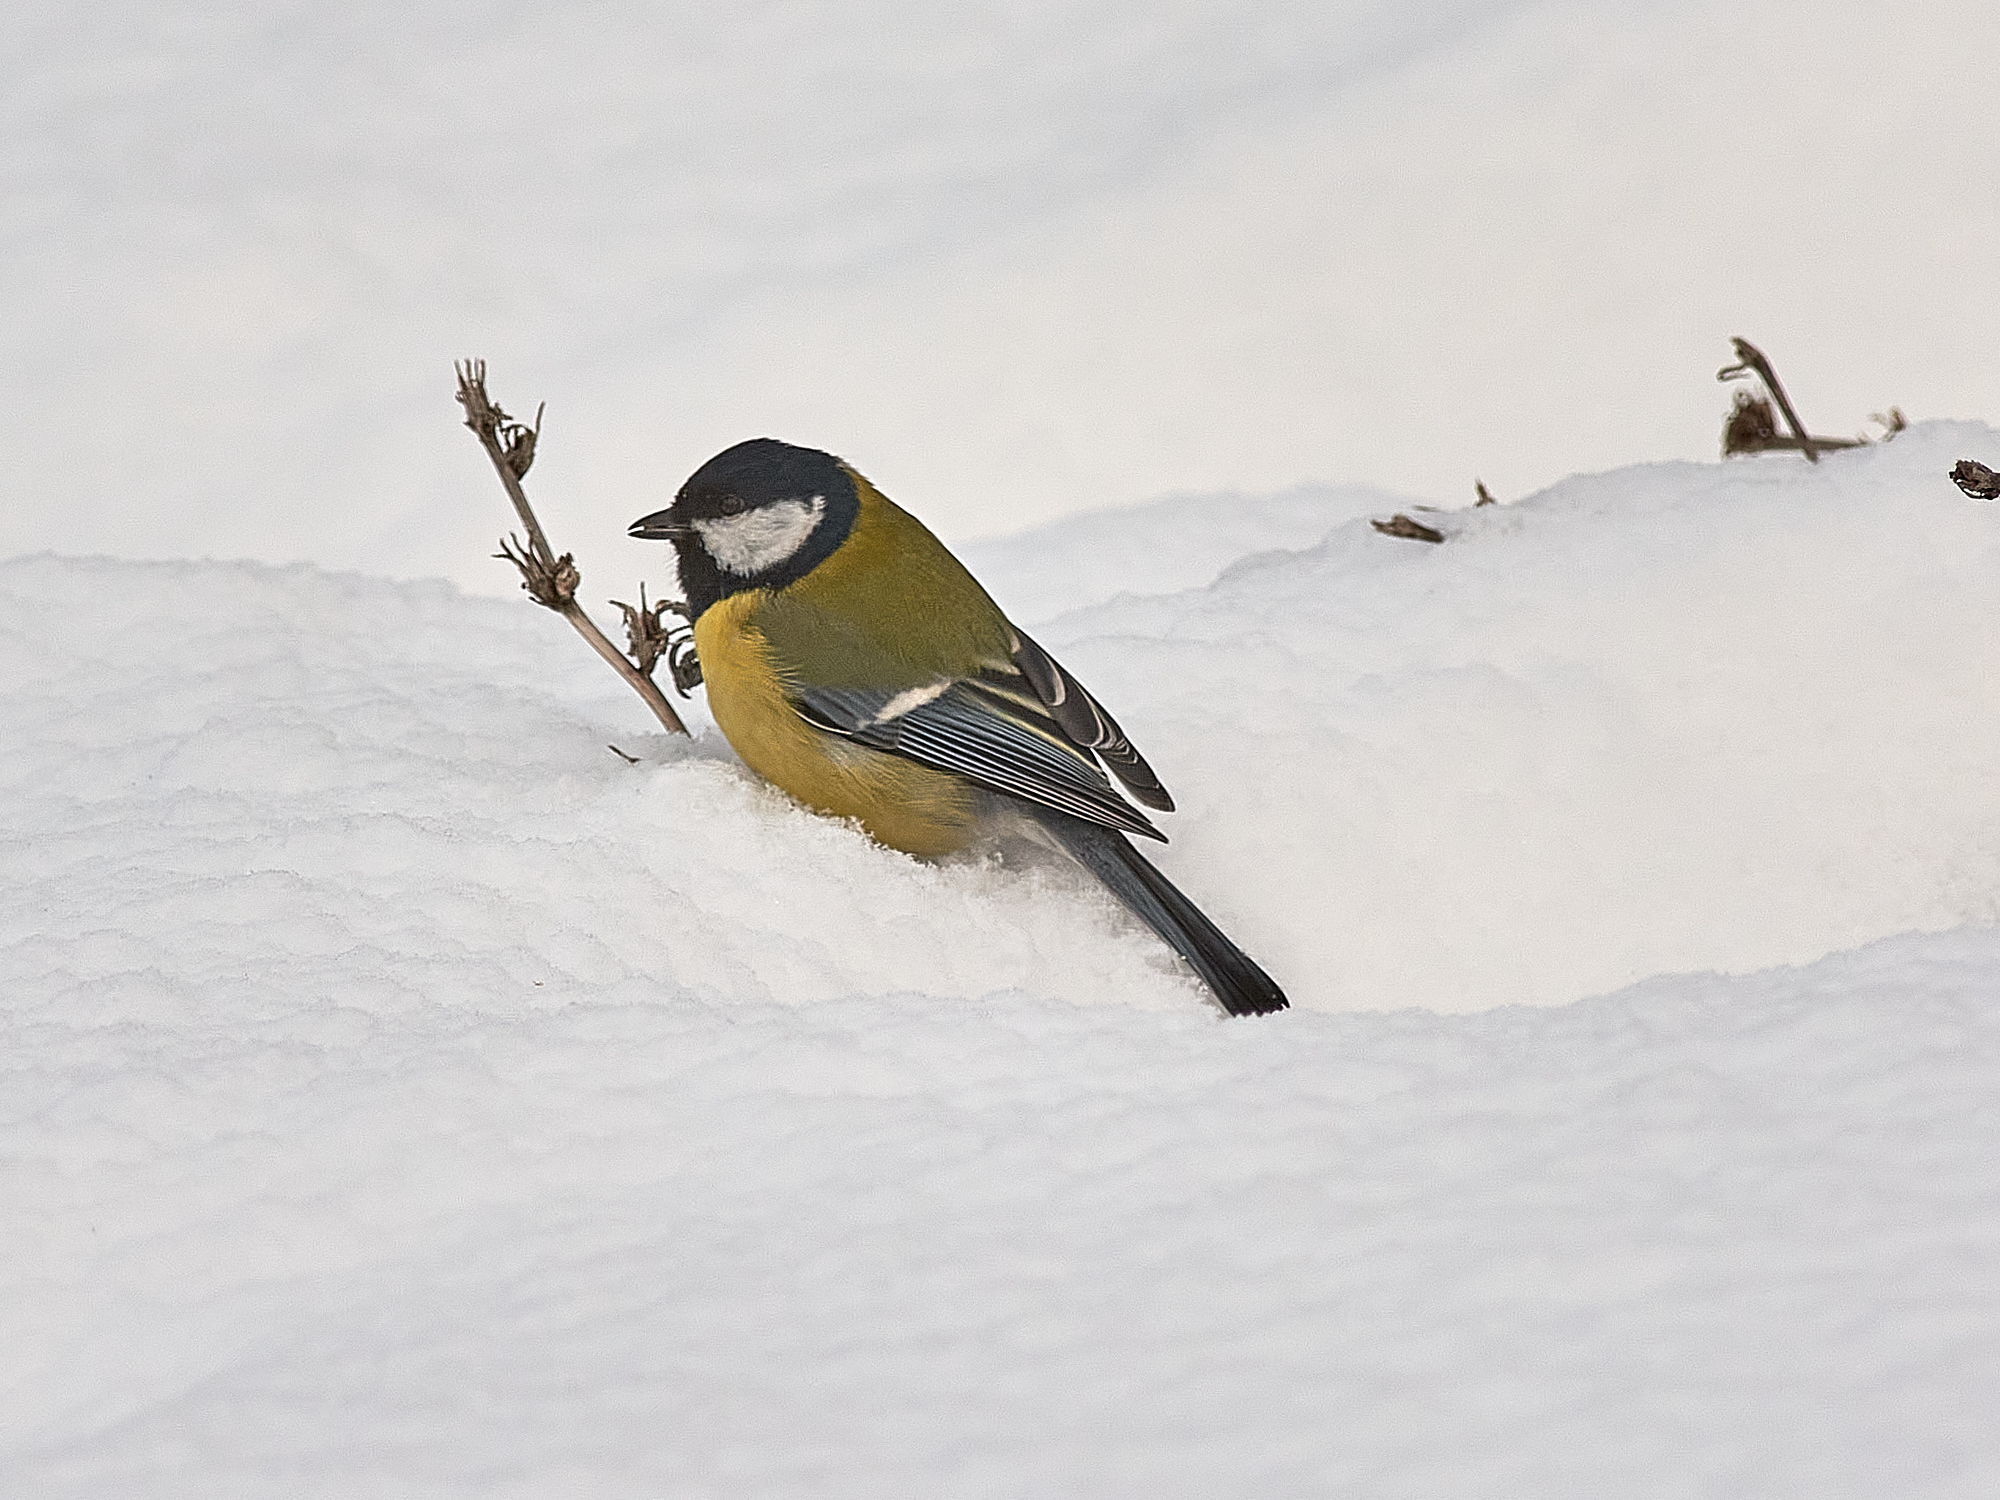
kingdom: Animalia
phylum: Chordata
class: Aves
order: Passeriformes
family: Paridae
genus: Parus
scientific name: Parus major
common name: Great tit
